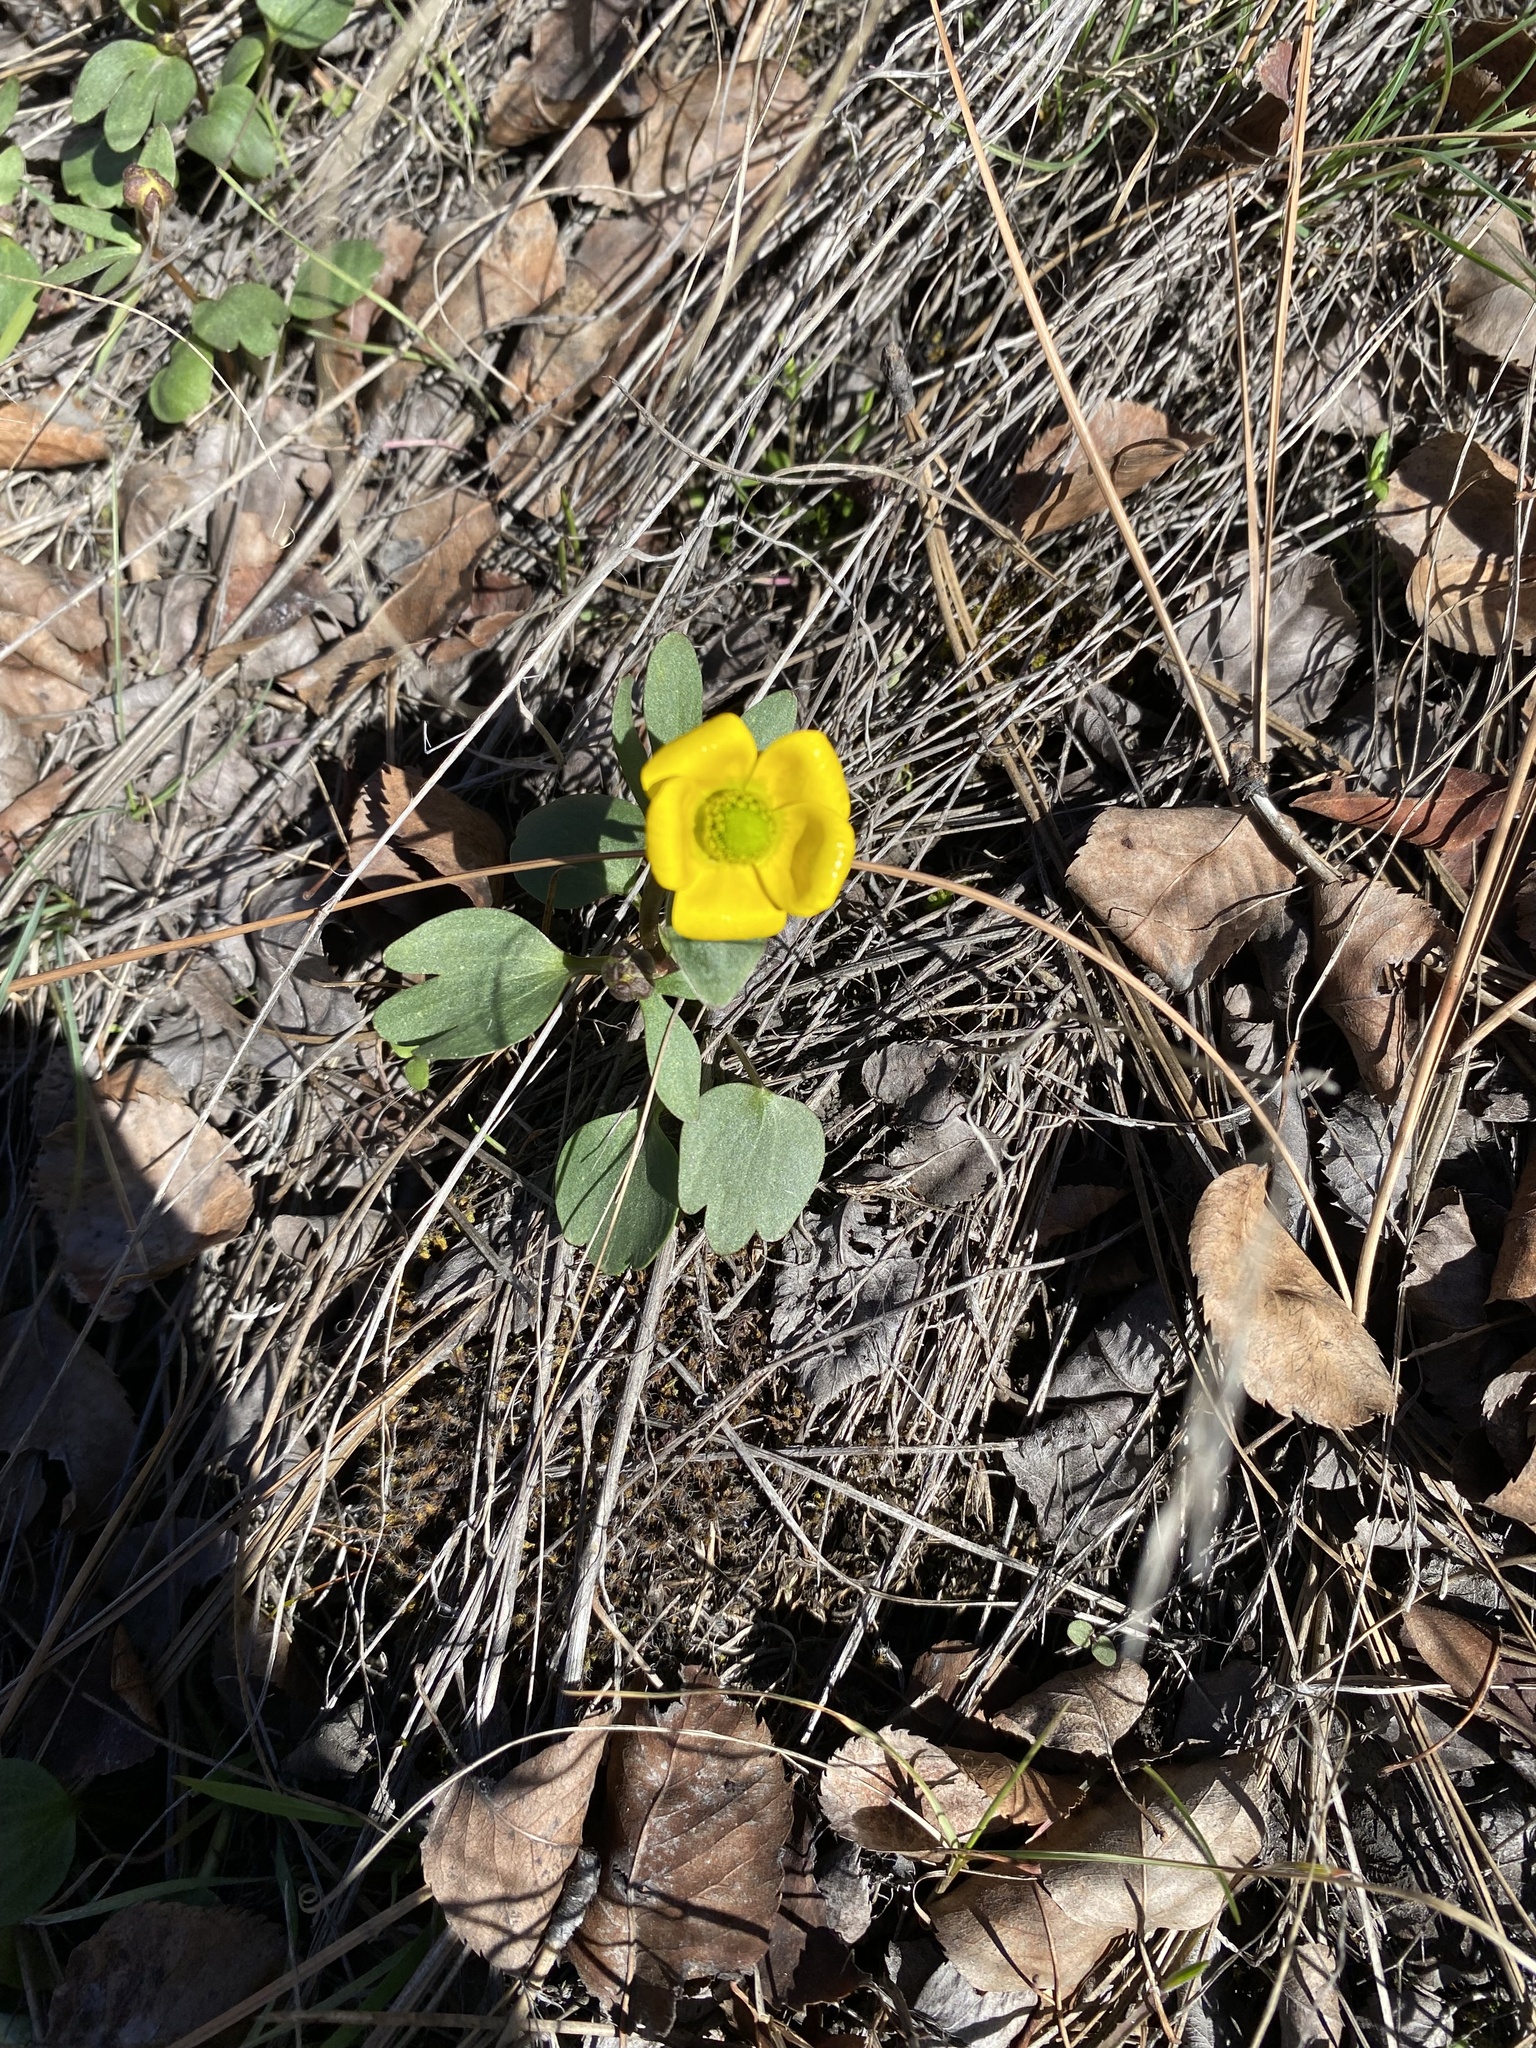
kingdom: Plantae
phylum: Tracheophyta
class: Magnoliopsida
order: Ranunculales
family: Ranunculaceae
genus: Ranunculus
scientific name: Ranunculus glaberrimus
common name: Sagebrush buttercup
